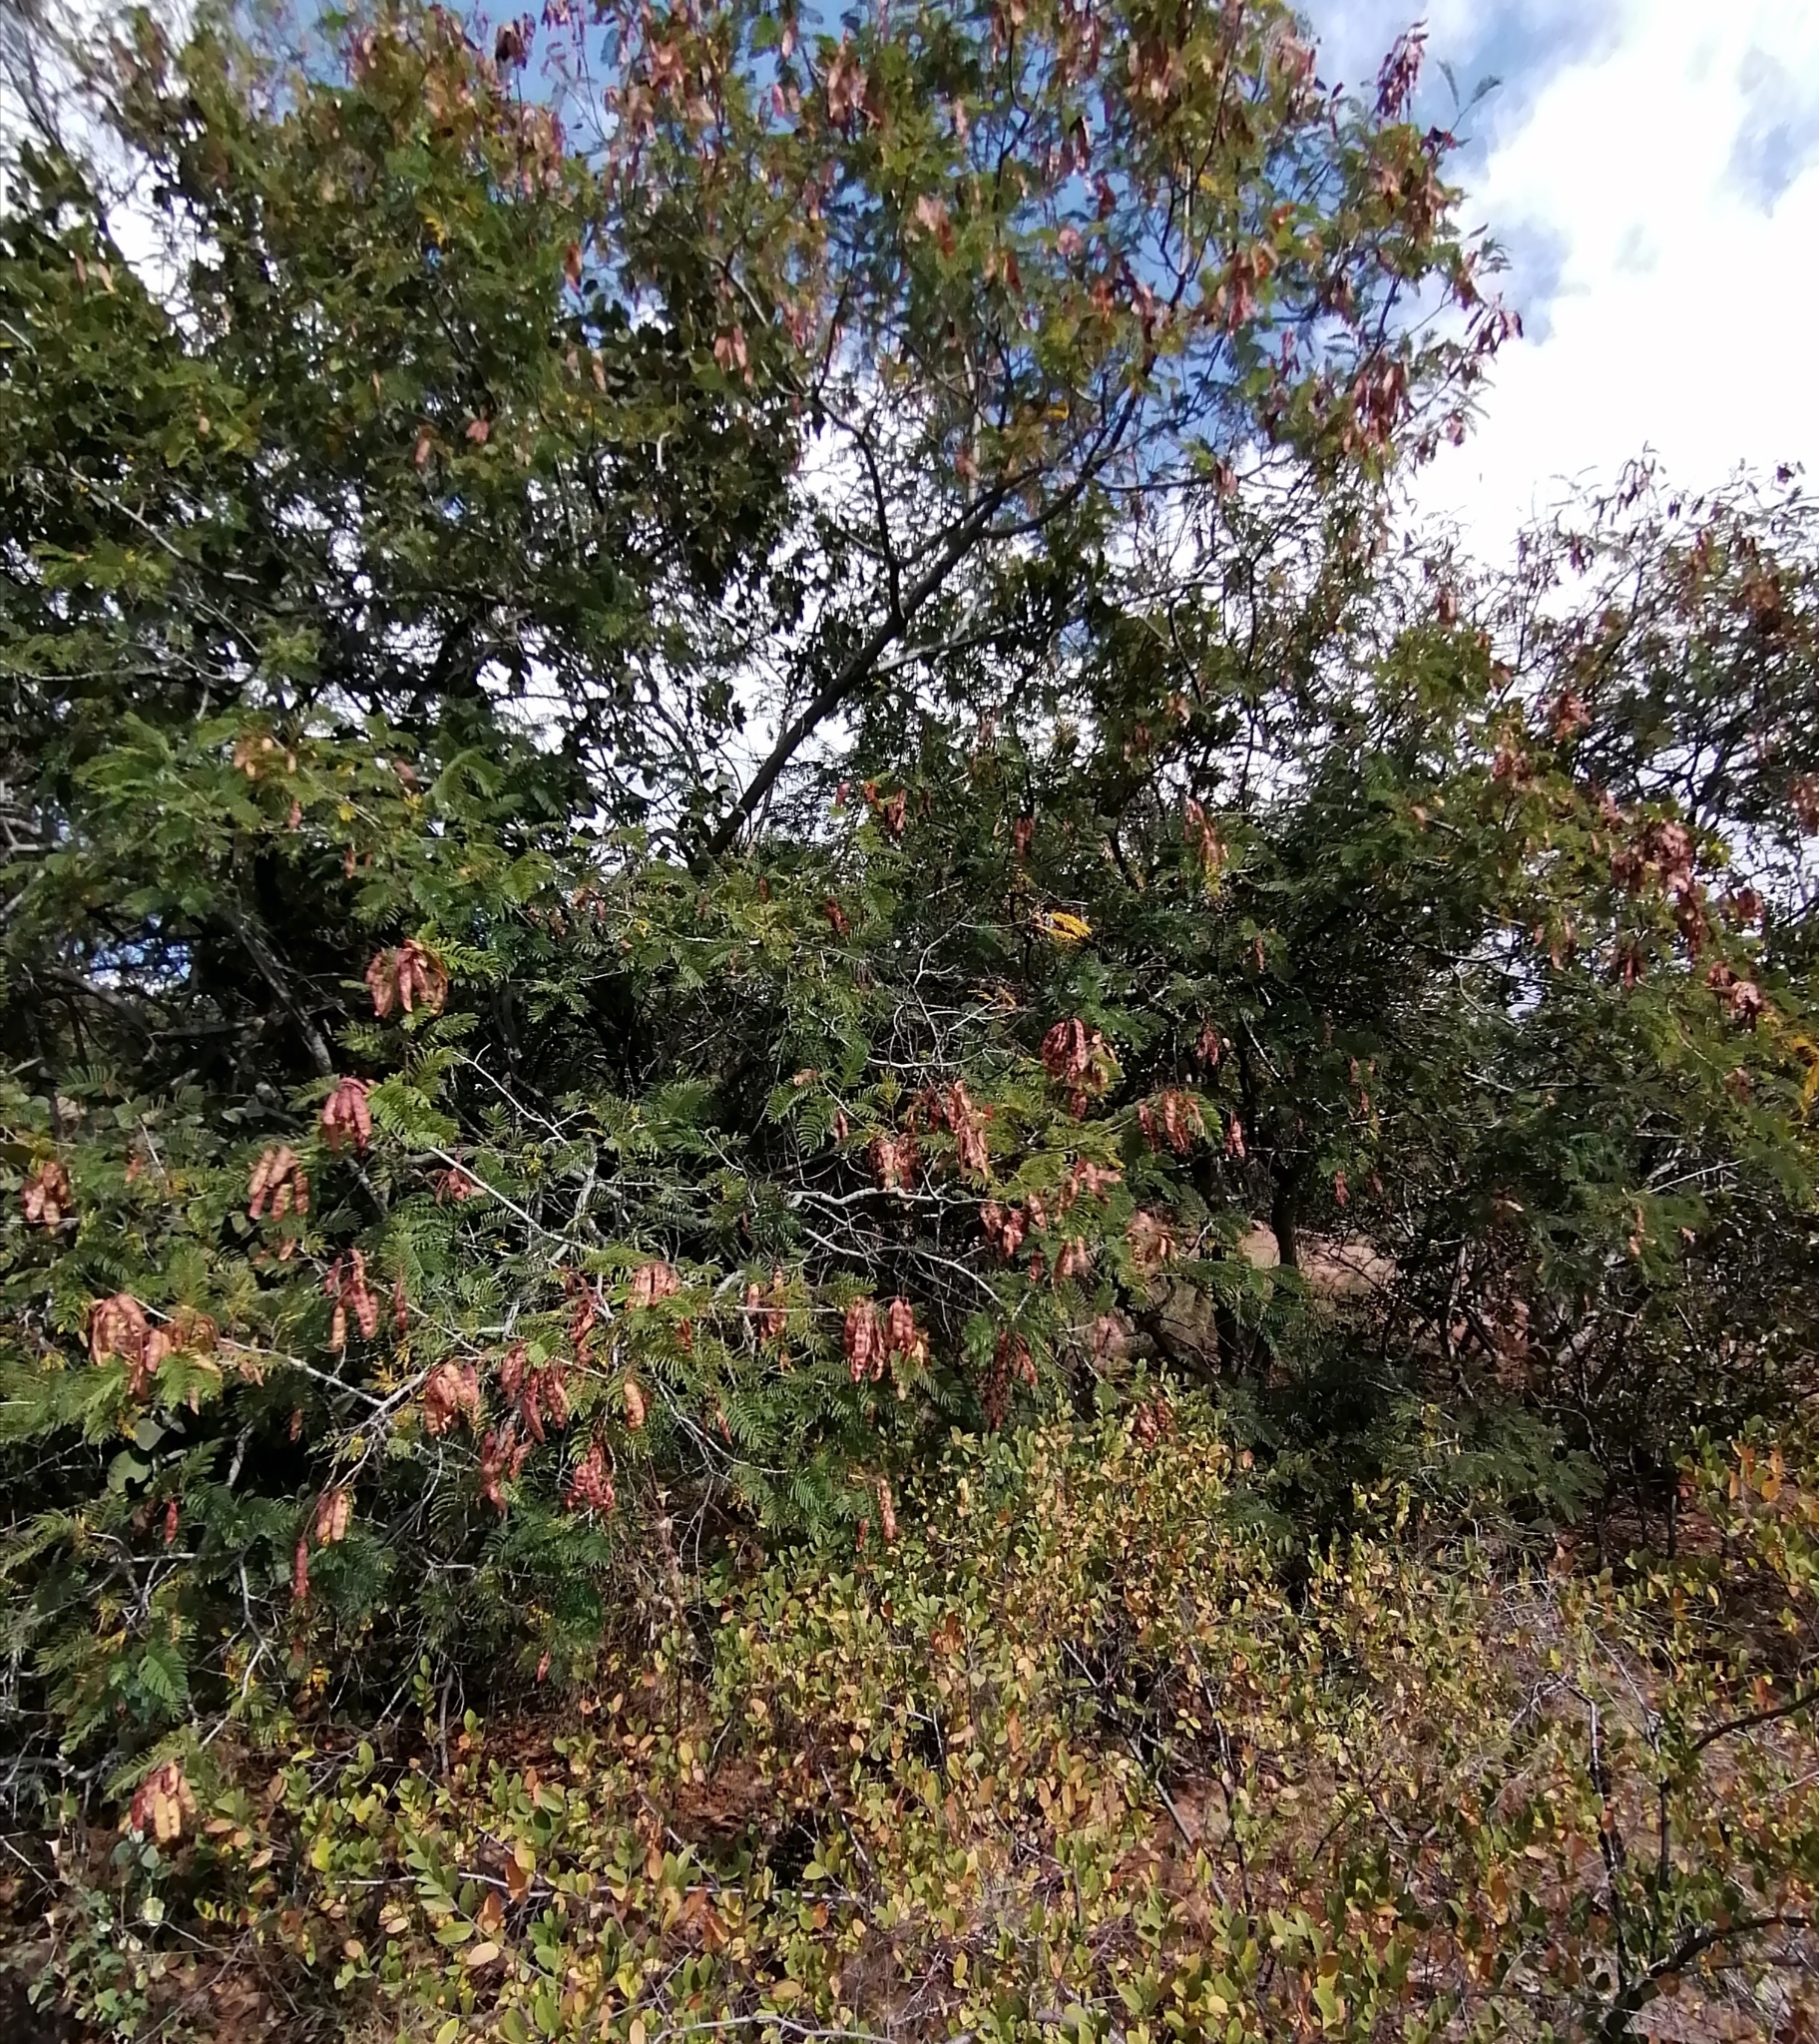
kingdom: Plantae
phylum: Tracheophyta
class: Magnoliopsida
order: Fabales
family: Fabaceae
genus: Senegalia
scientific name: Senegalia ataxacantha
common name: Flame acacia
